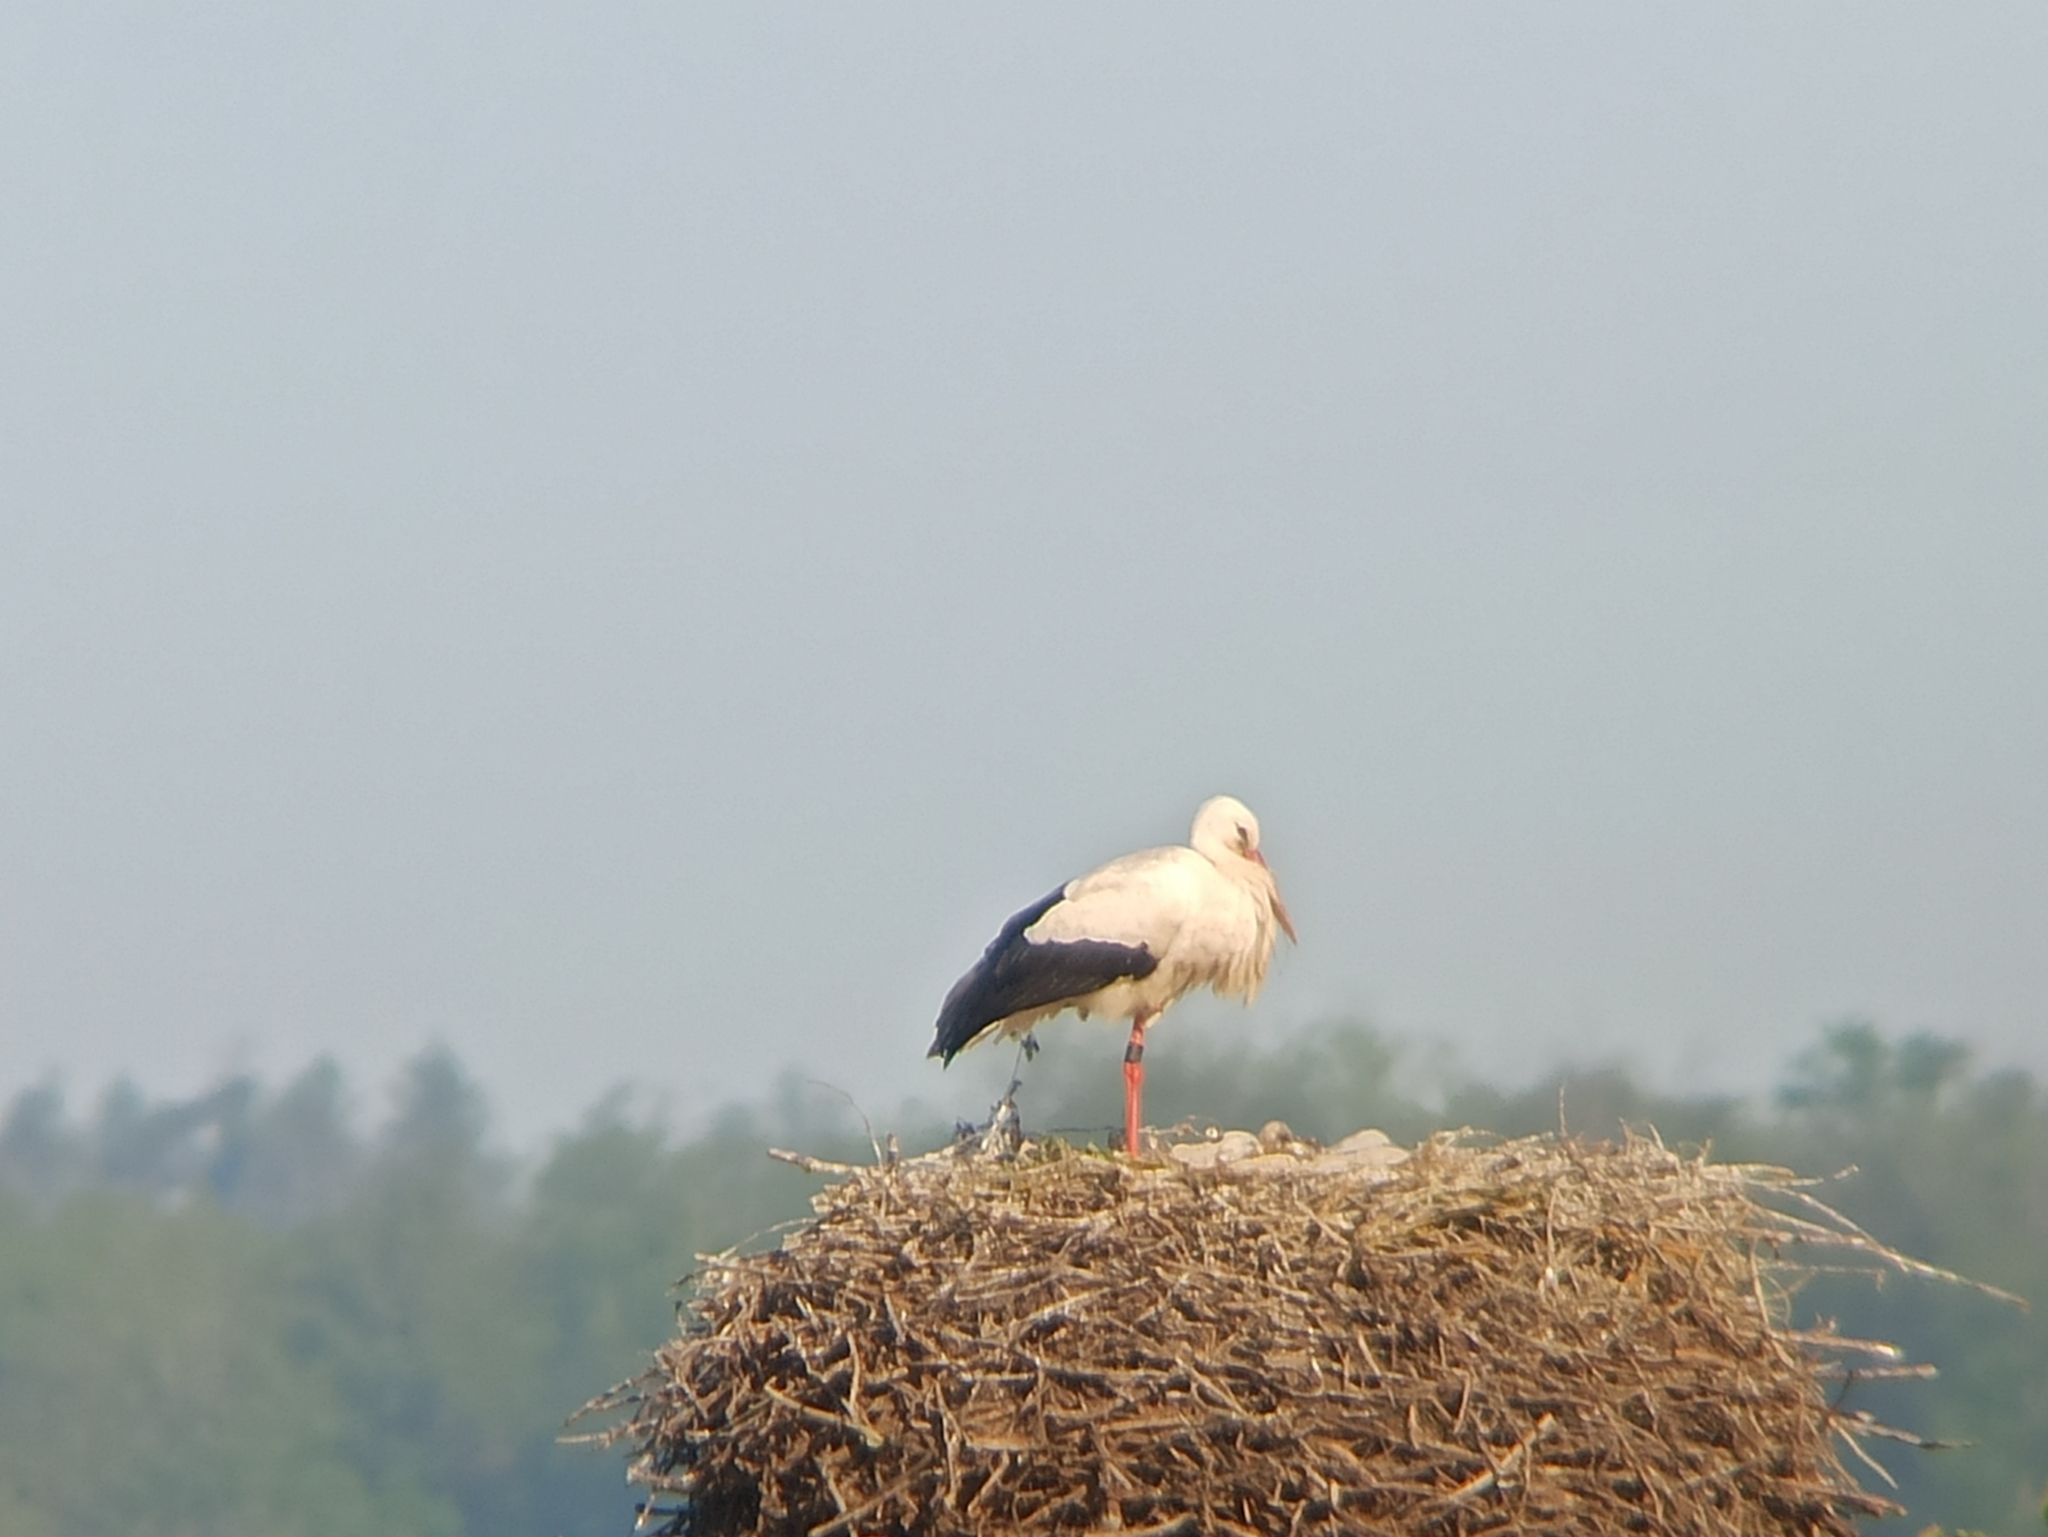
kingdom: Animalia
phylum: Chordata
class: Aves
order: Ciconiiformes
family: Ciconiidae
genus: Ciconia
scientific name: Ciconia ciconia
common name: White stork
